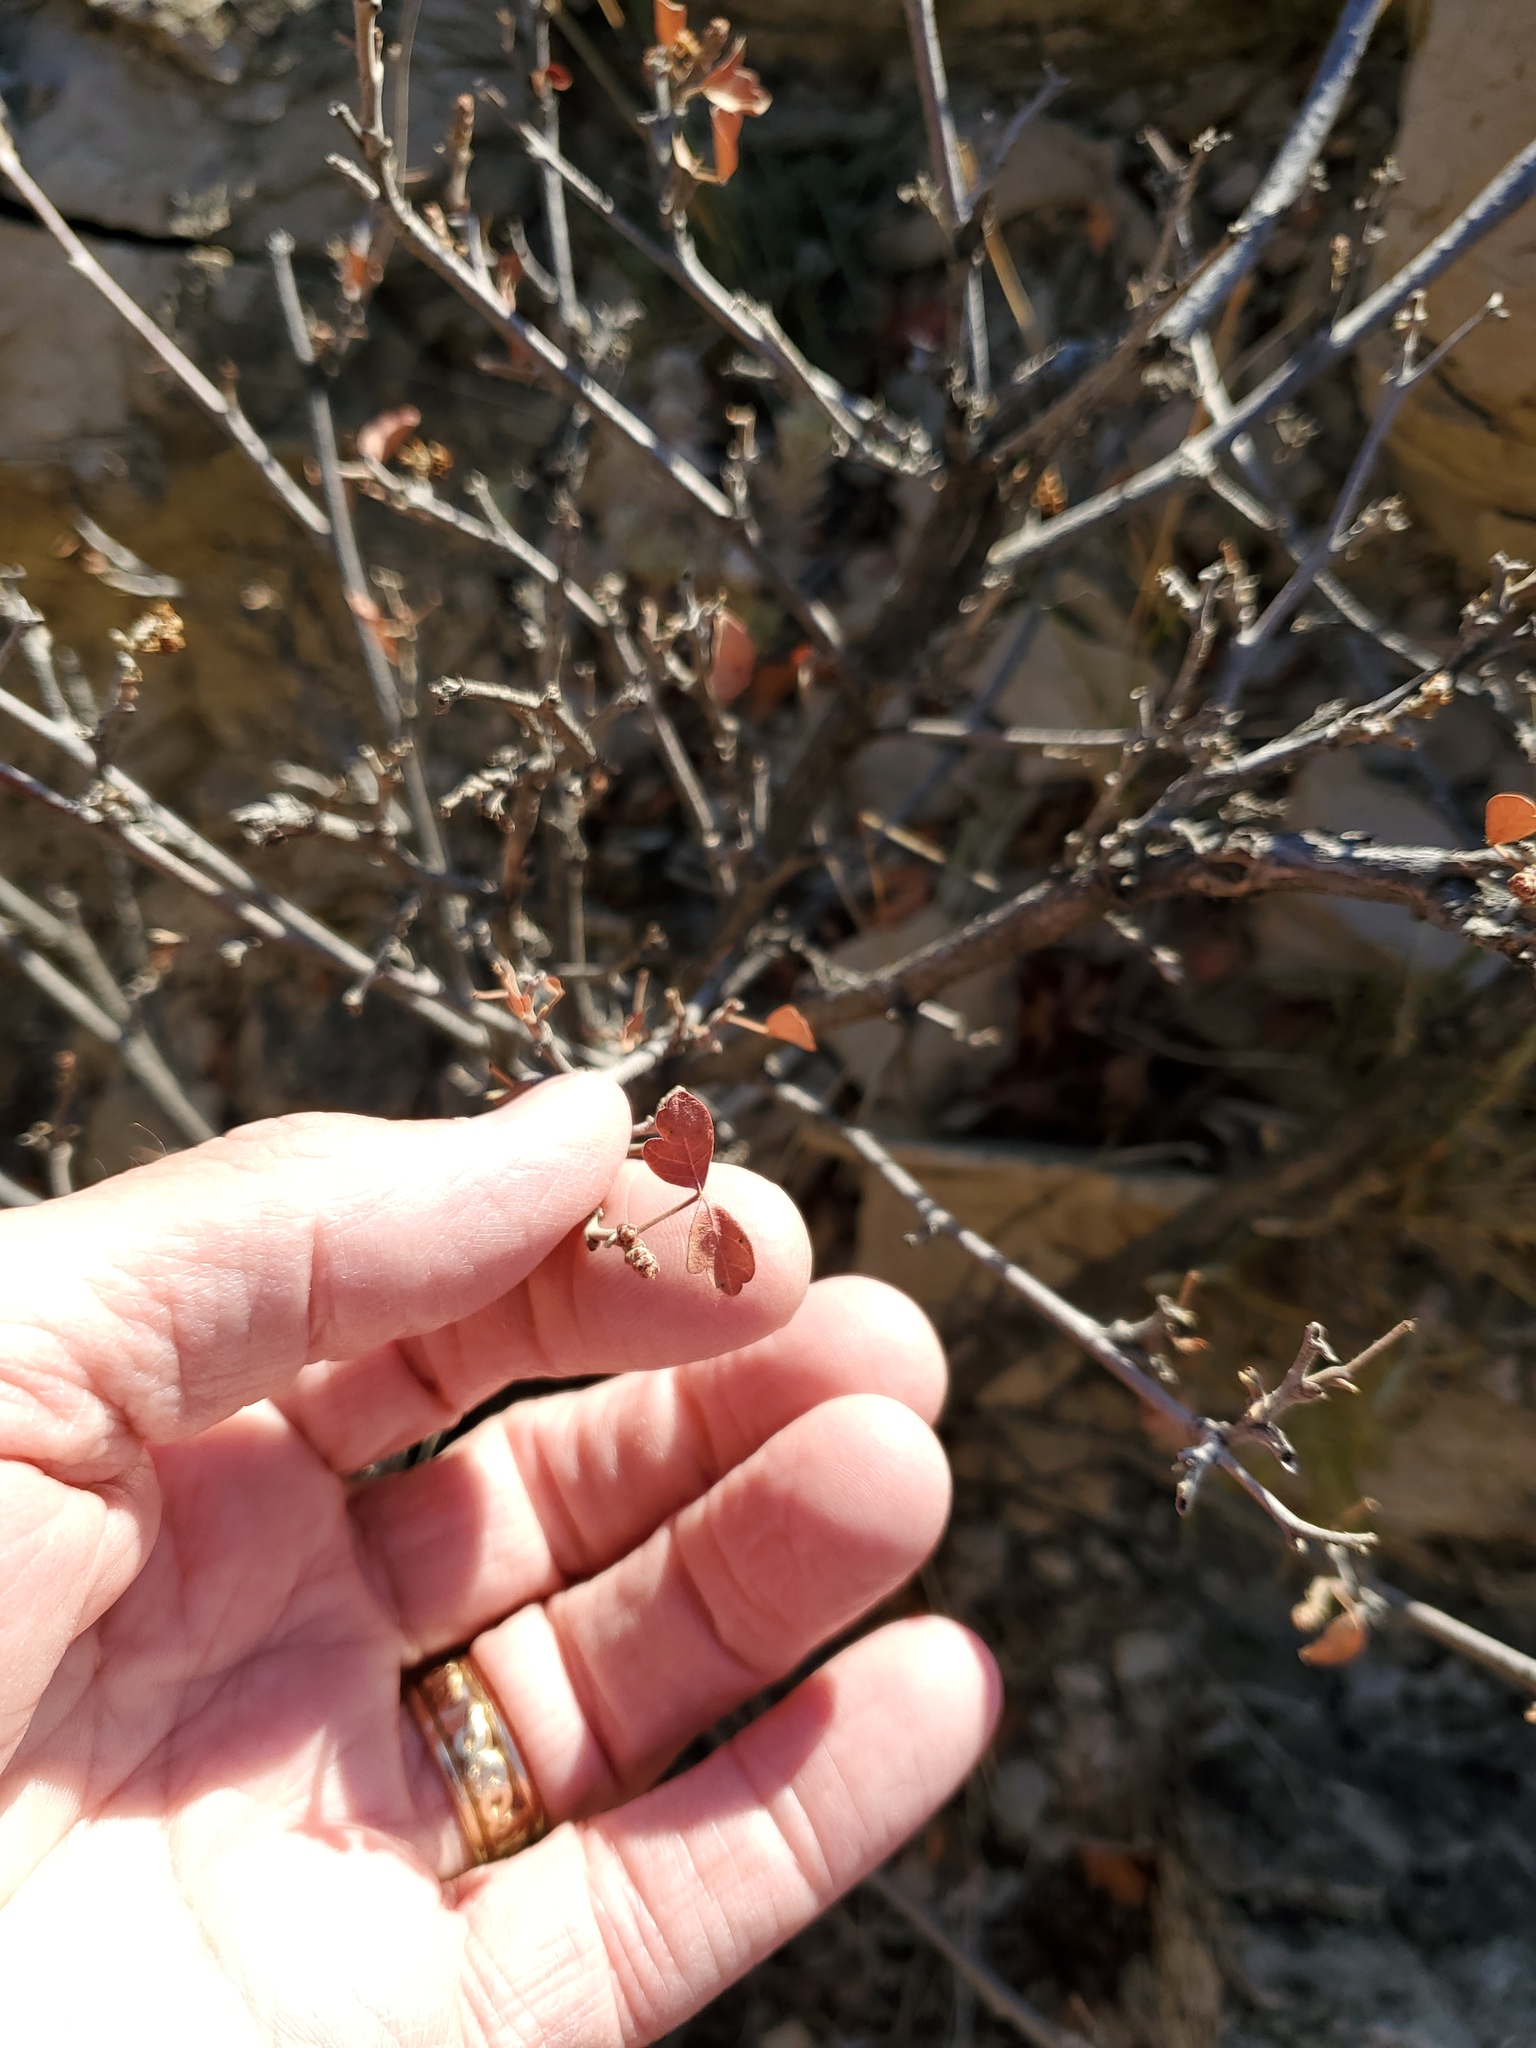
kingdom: Plantae
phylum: Tracheophyta
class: Magnoliopsida
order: Sapindales
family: Anacardiaceae
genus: Rhus
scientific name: Rhus aromatica
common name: Aromatic sumac
